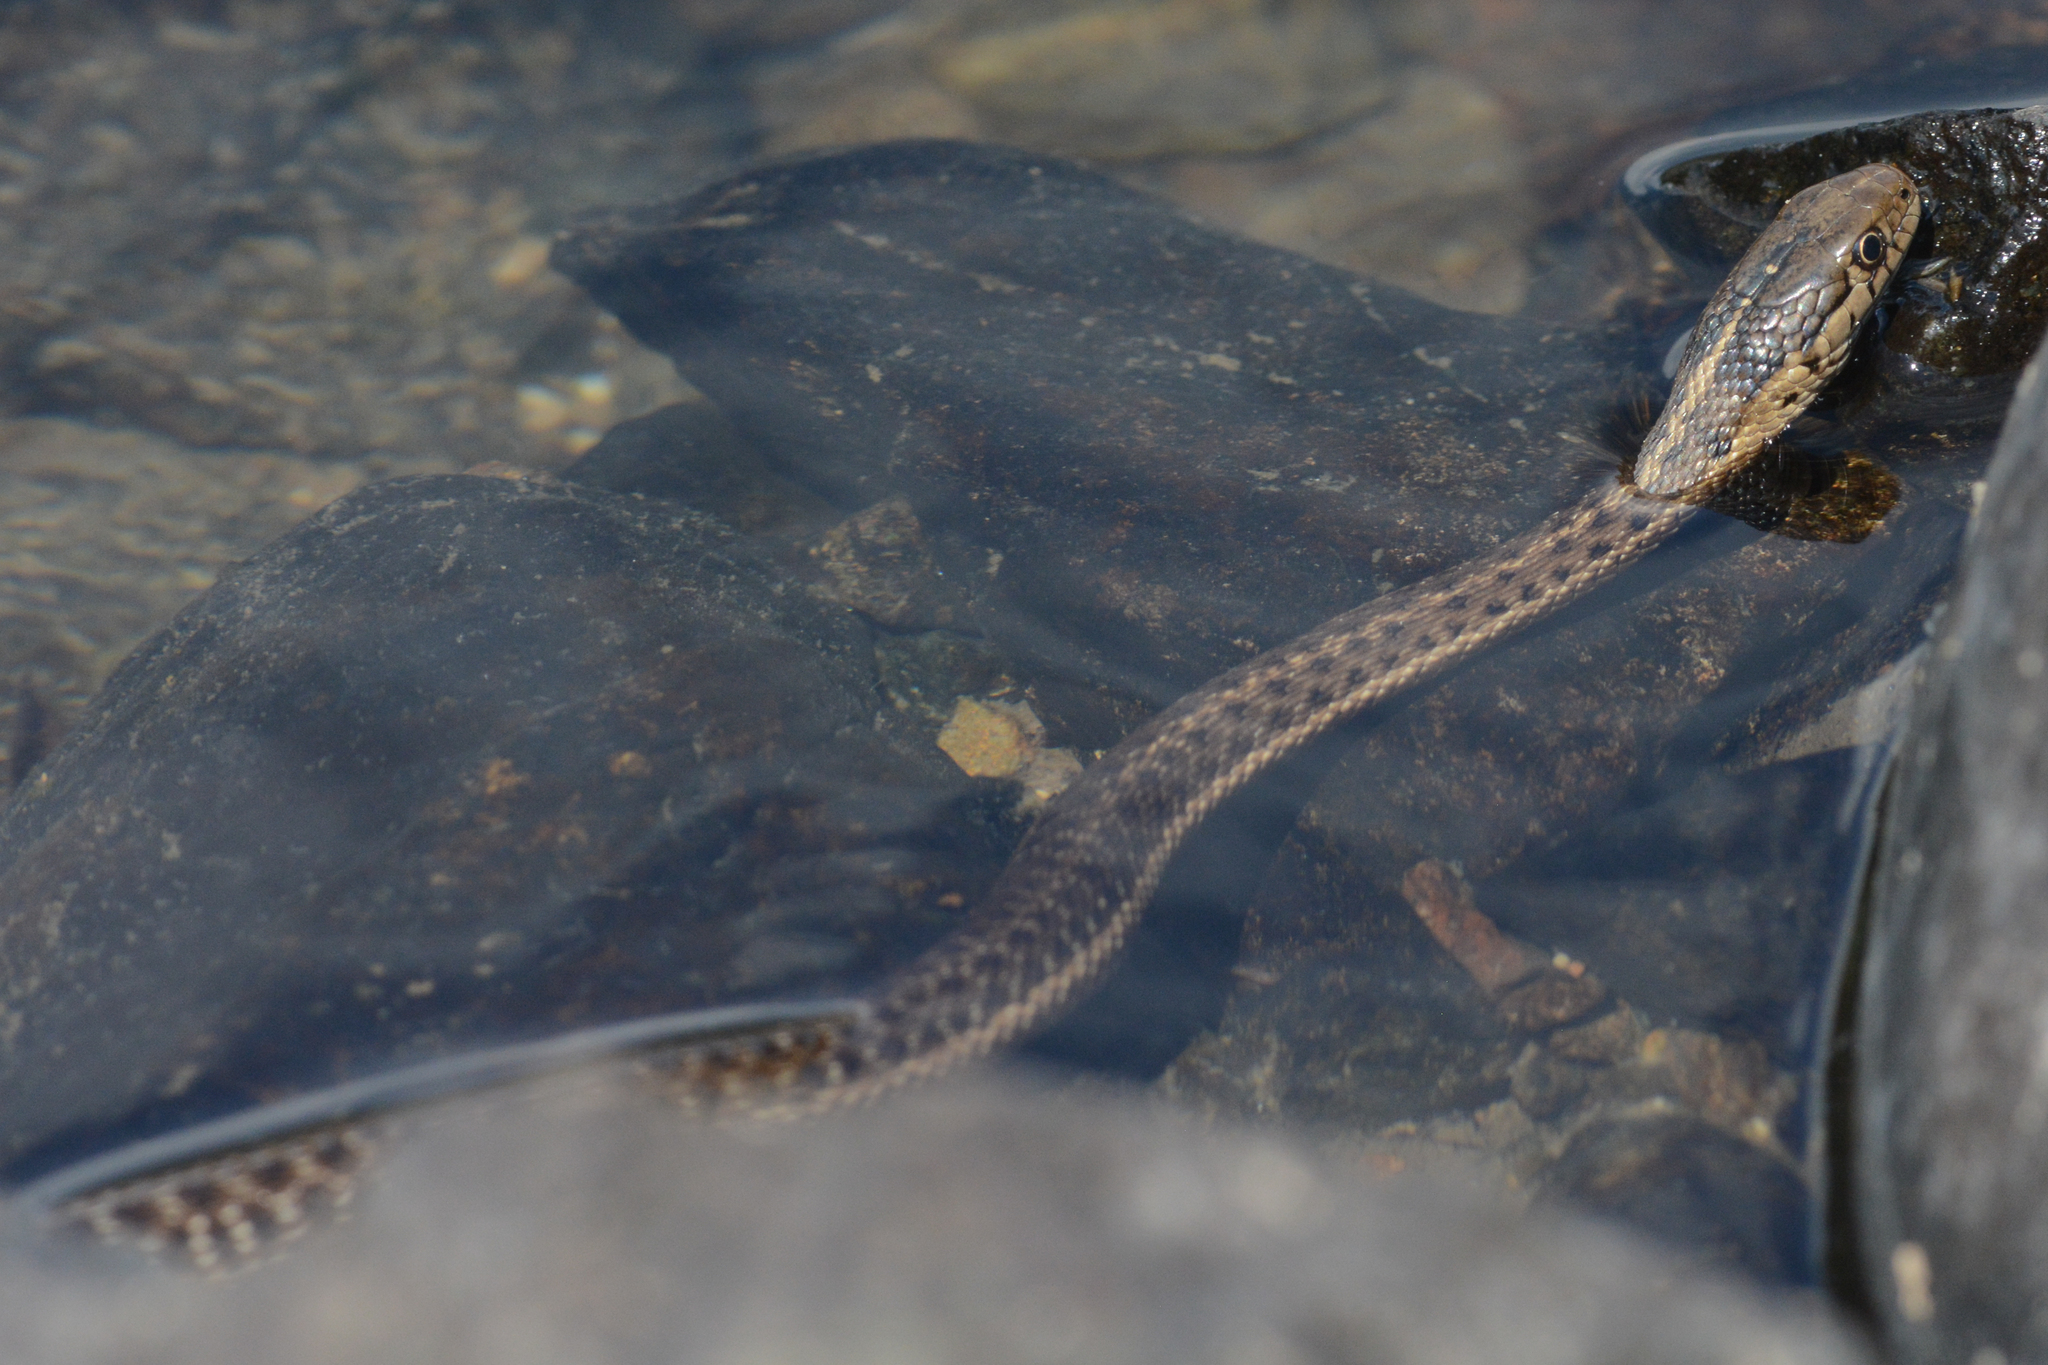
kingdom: Animalia
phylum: Chordata
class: Squamata
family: Colubridae
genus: Thamnophis
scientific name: Thamnophis elegans
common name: Western terrestrial garter snake
